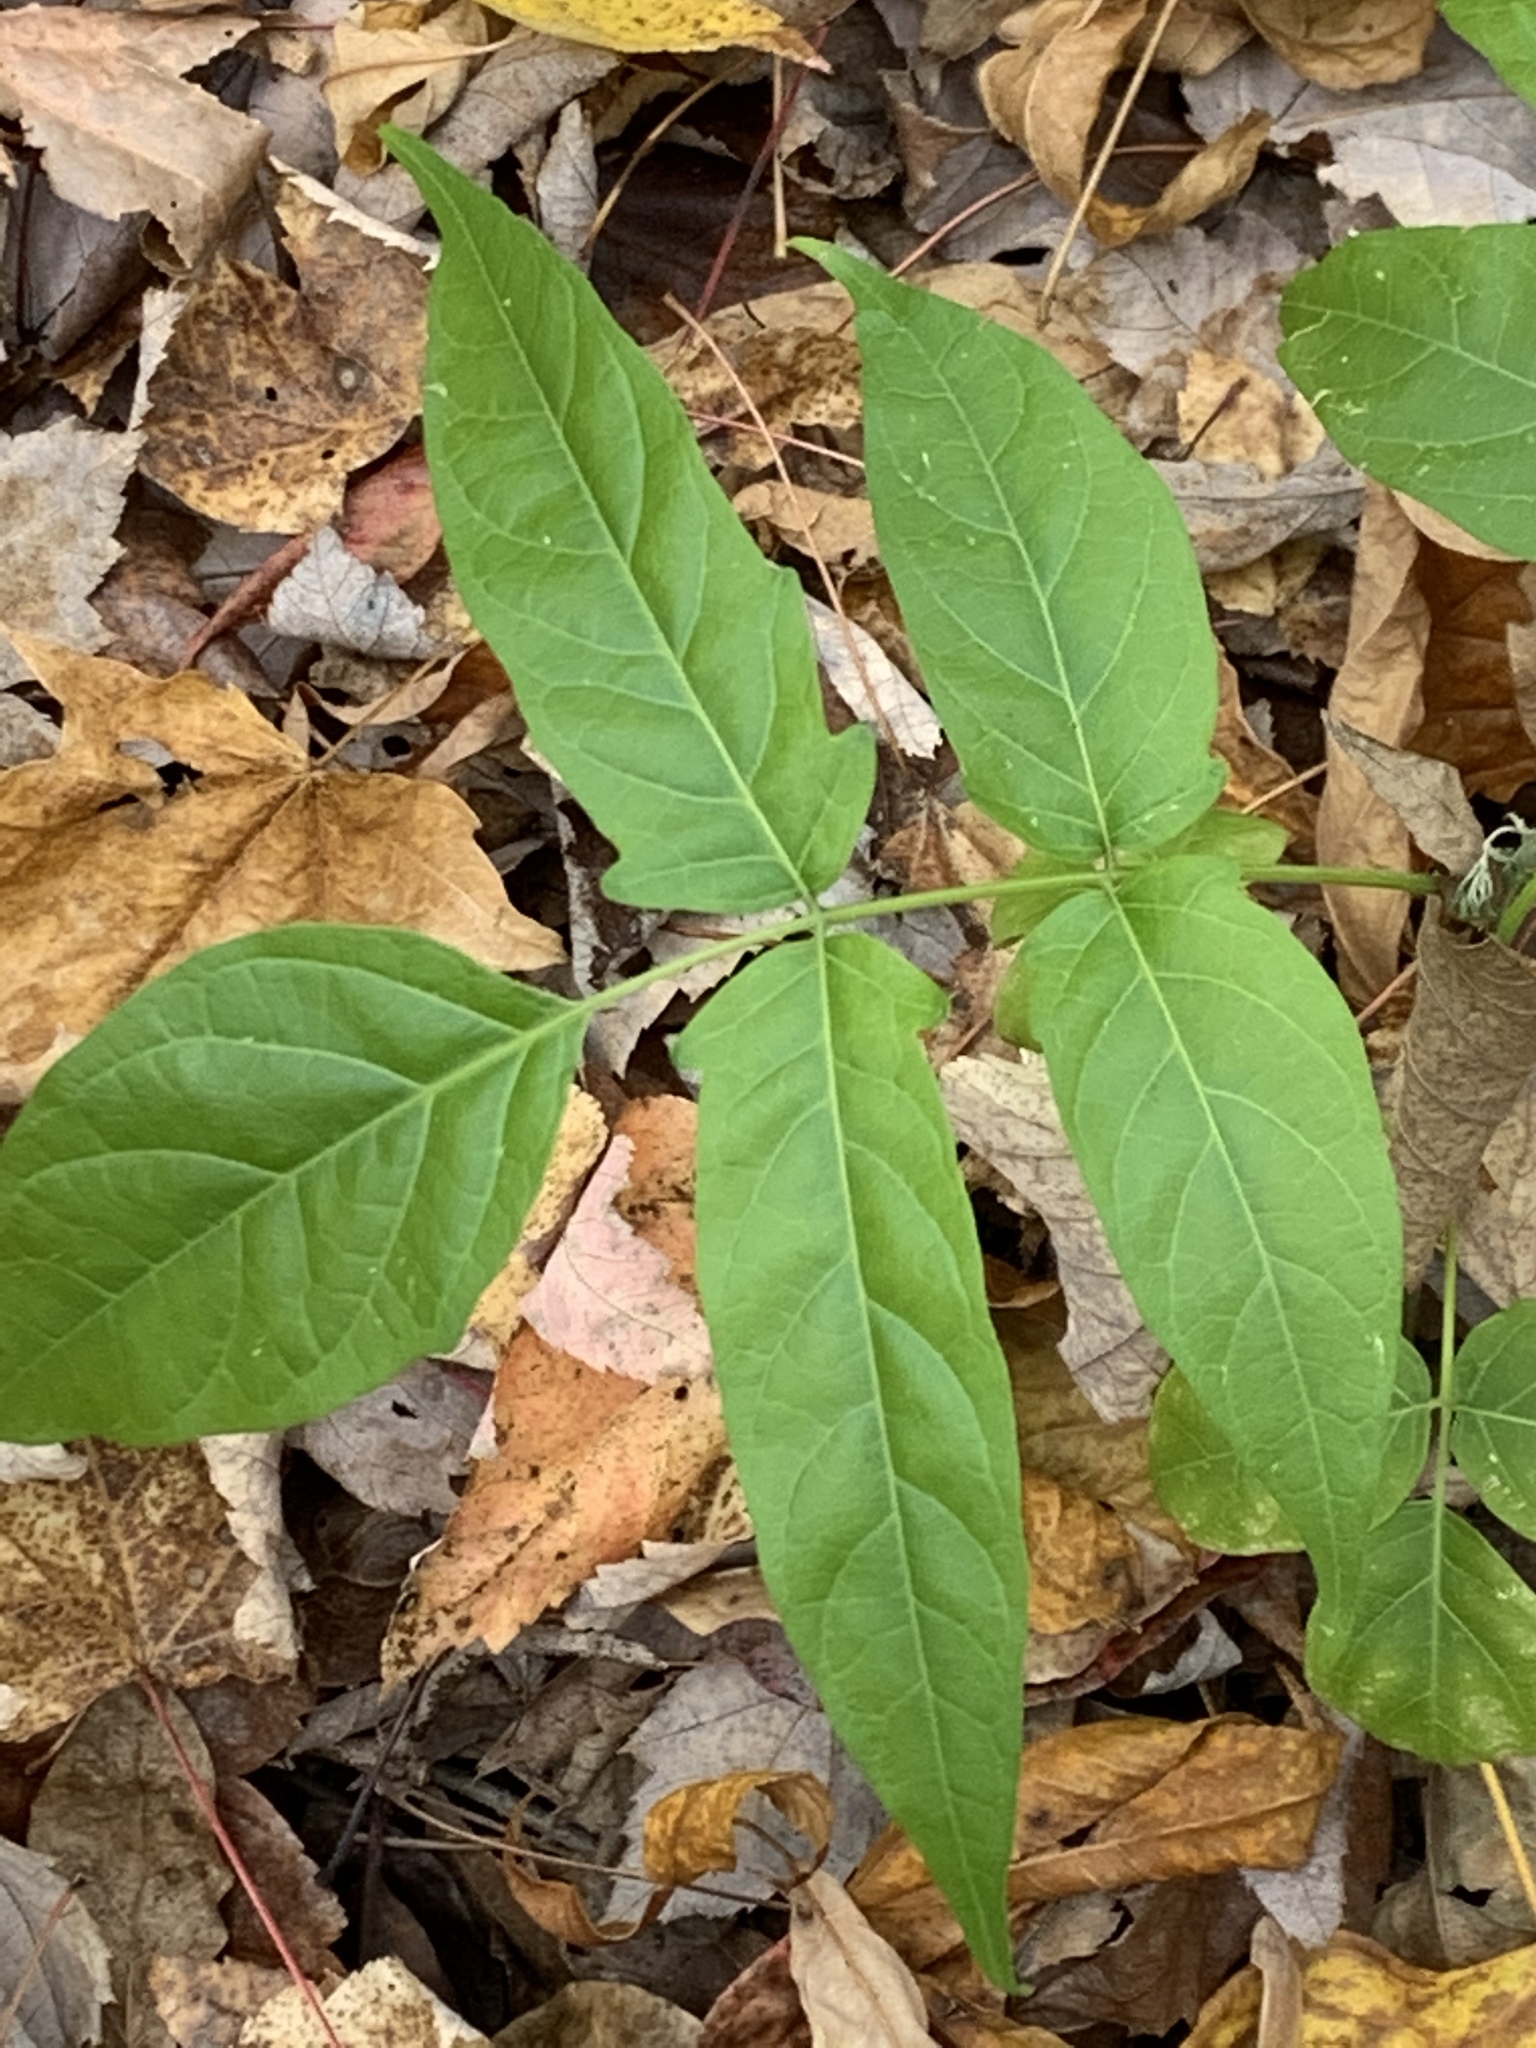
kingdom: Plantae
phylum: Tracheophyta
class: Magnoliopsida
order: Sapindales
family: Simaroubaceae
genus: Ailanthus
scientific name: Ailanthus altissima
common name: Tree-of-heaven
